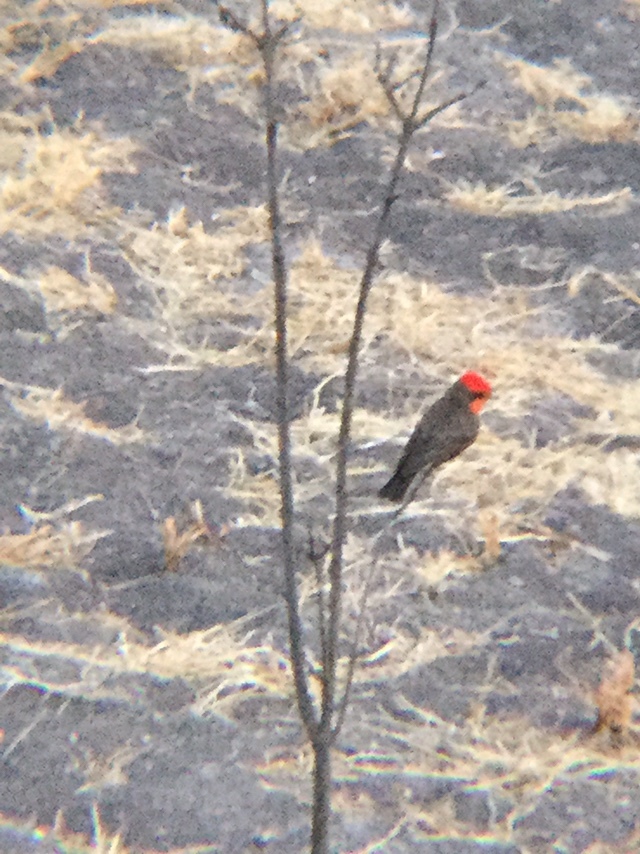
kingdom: Animalia
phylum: Chordata
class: Aves
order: Passeriformes
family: Tyrannidae
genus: Pyrocephalus
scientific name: Pyrocephalus rubinus
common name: Vermilion flycatcher
